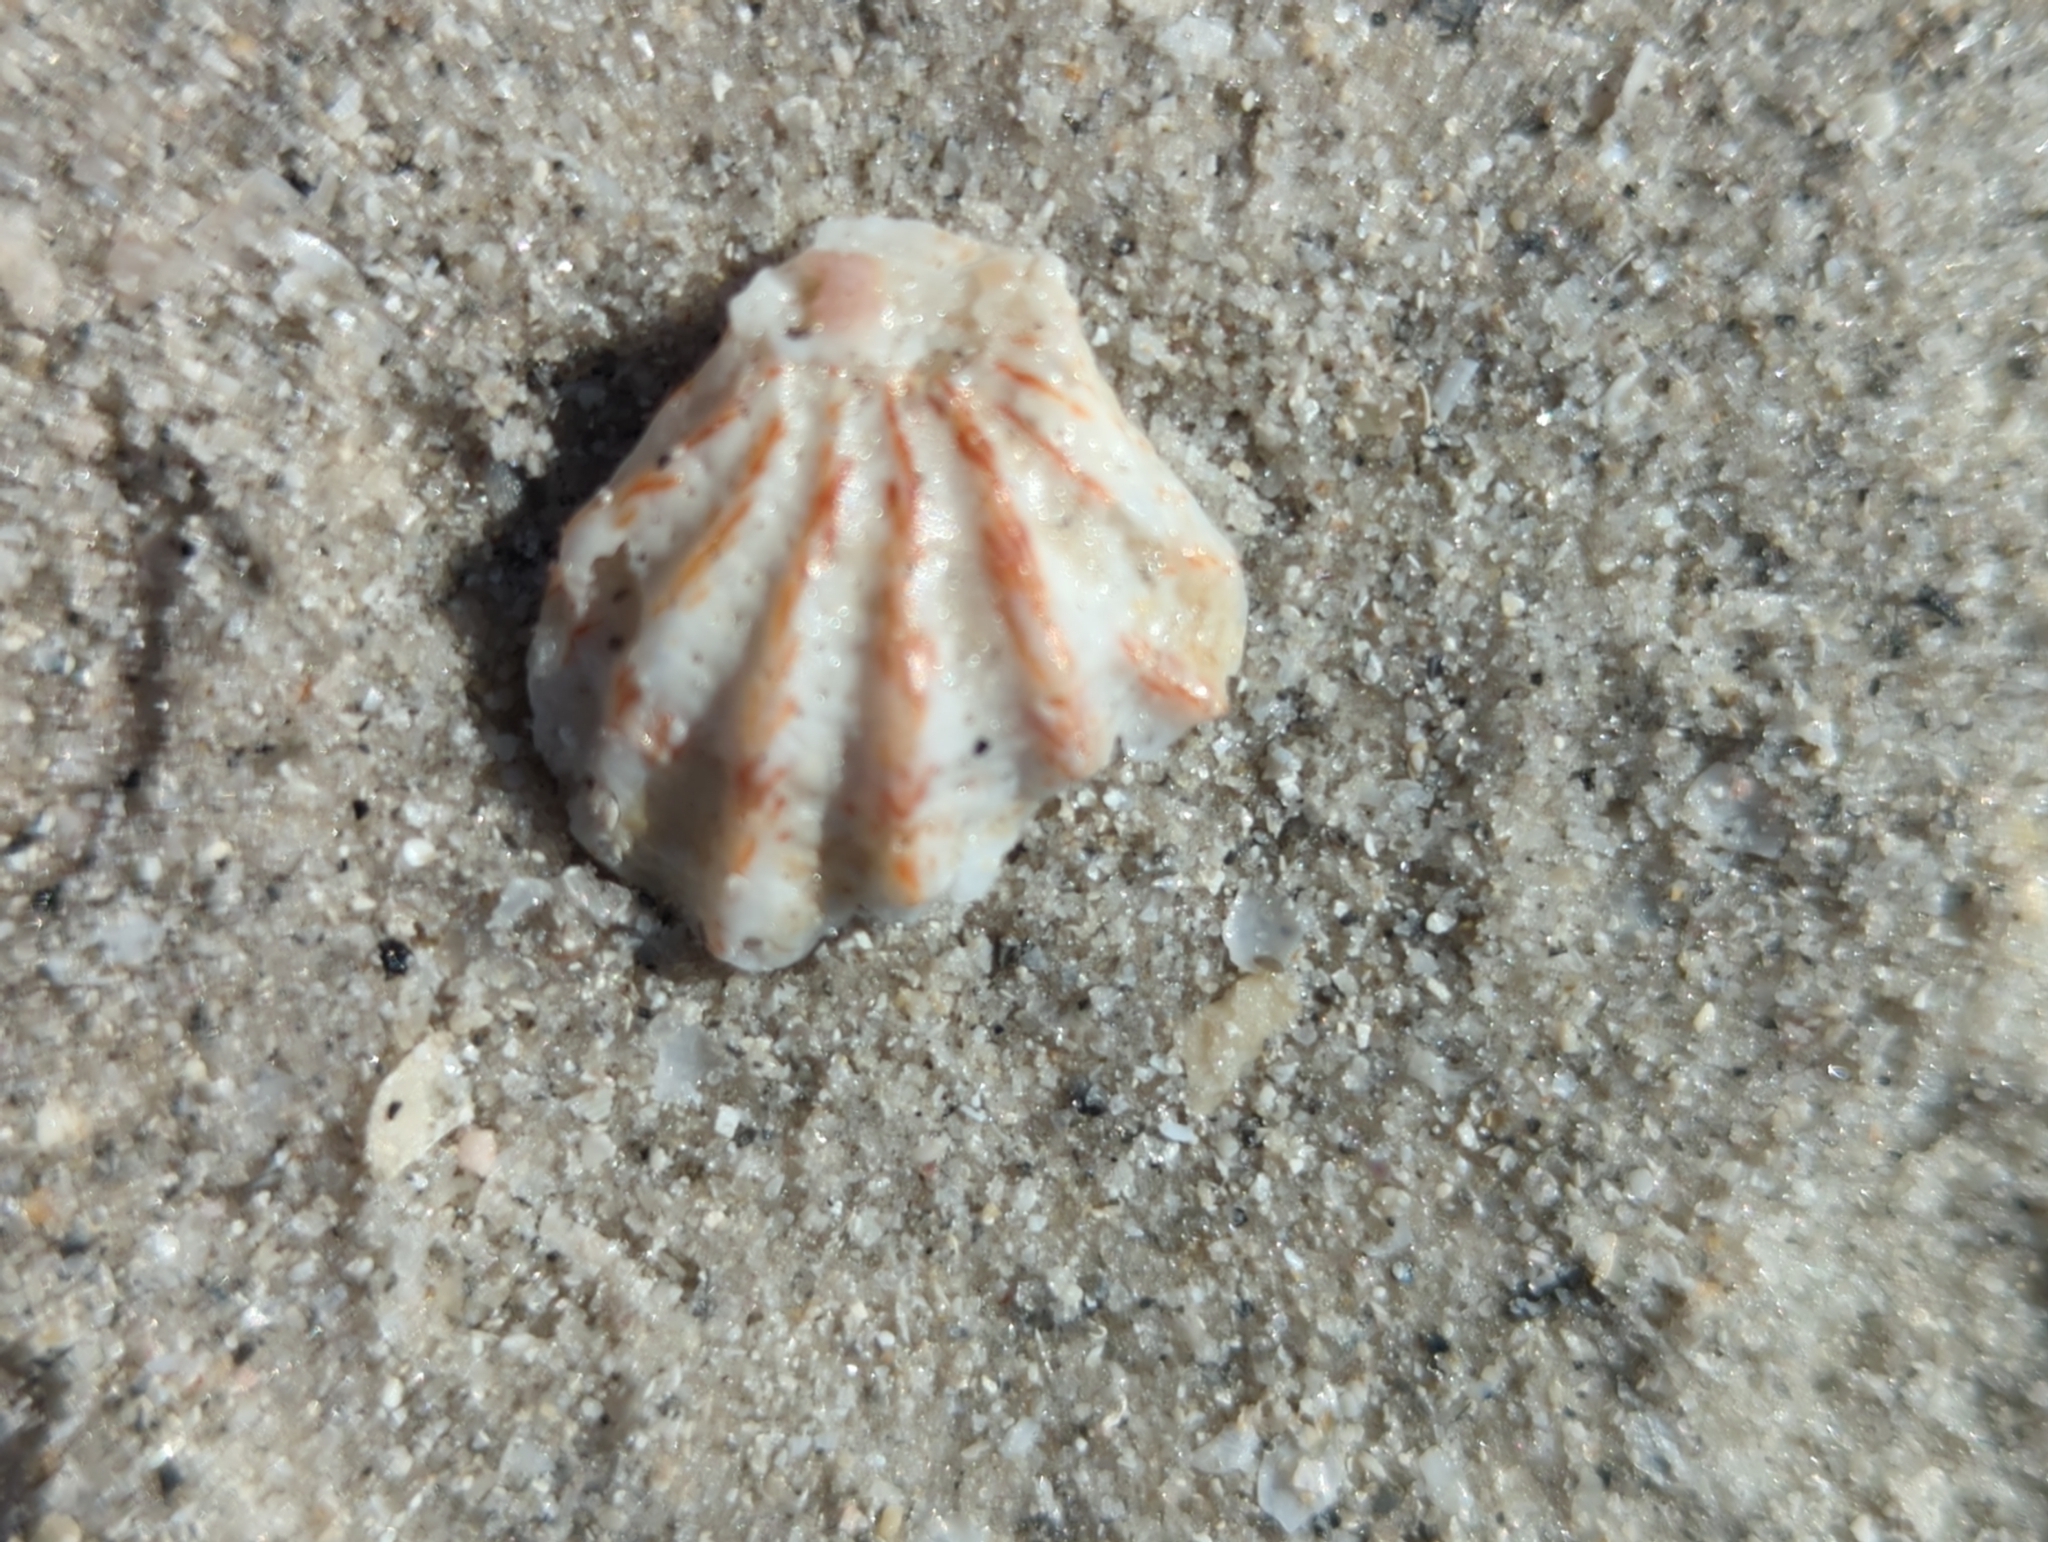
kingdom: Animalia
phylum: Mollusca
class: Bivalvia
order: Pectinida
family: Plicatulidae
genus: Plicatula
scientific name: Plicatula gibbosa
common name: Atlantic kitten's paw
